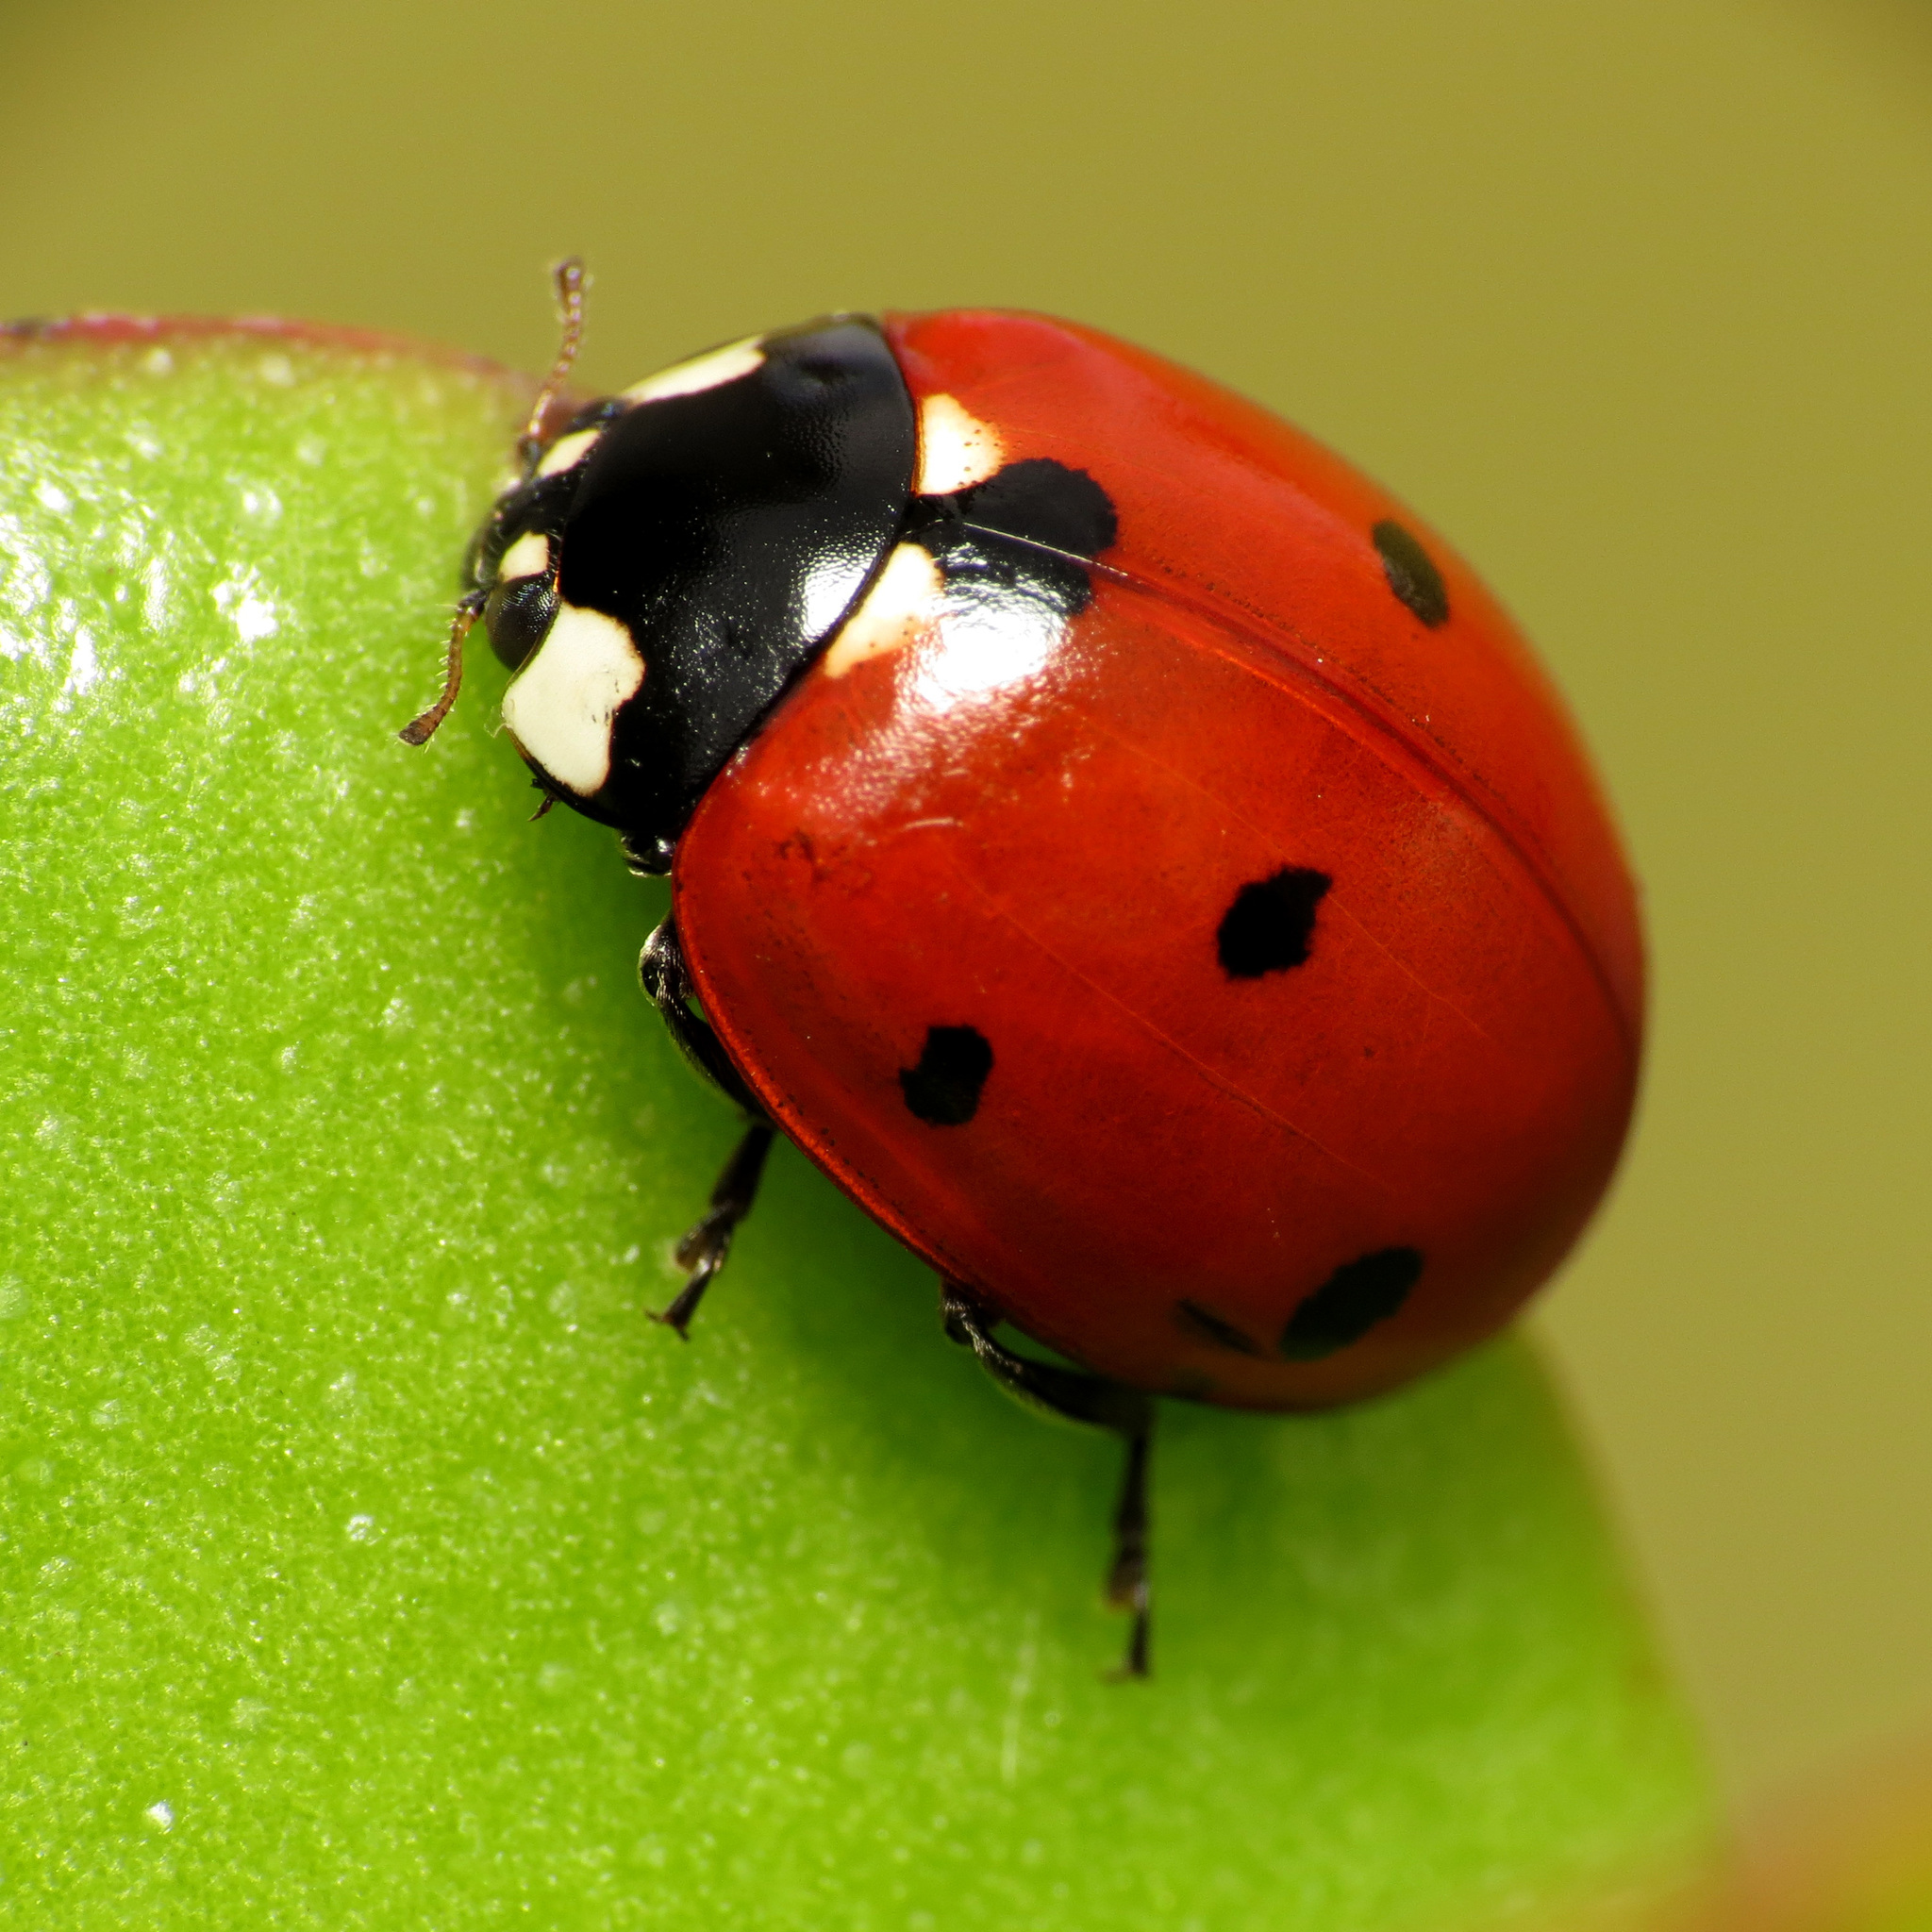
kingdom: Animalia
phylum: Arthropoda
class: Insecta
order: Coleoptera
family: Coccinellidae
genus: Coccinella
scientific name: Coccinella septempunctata
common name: Sevenspotted lady beetle
